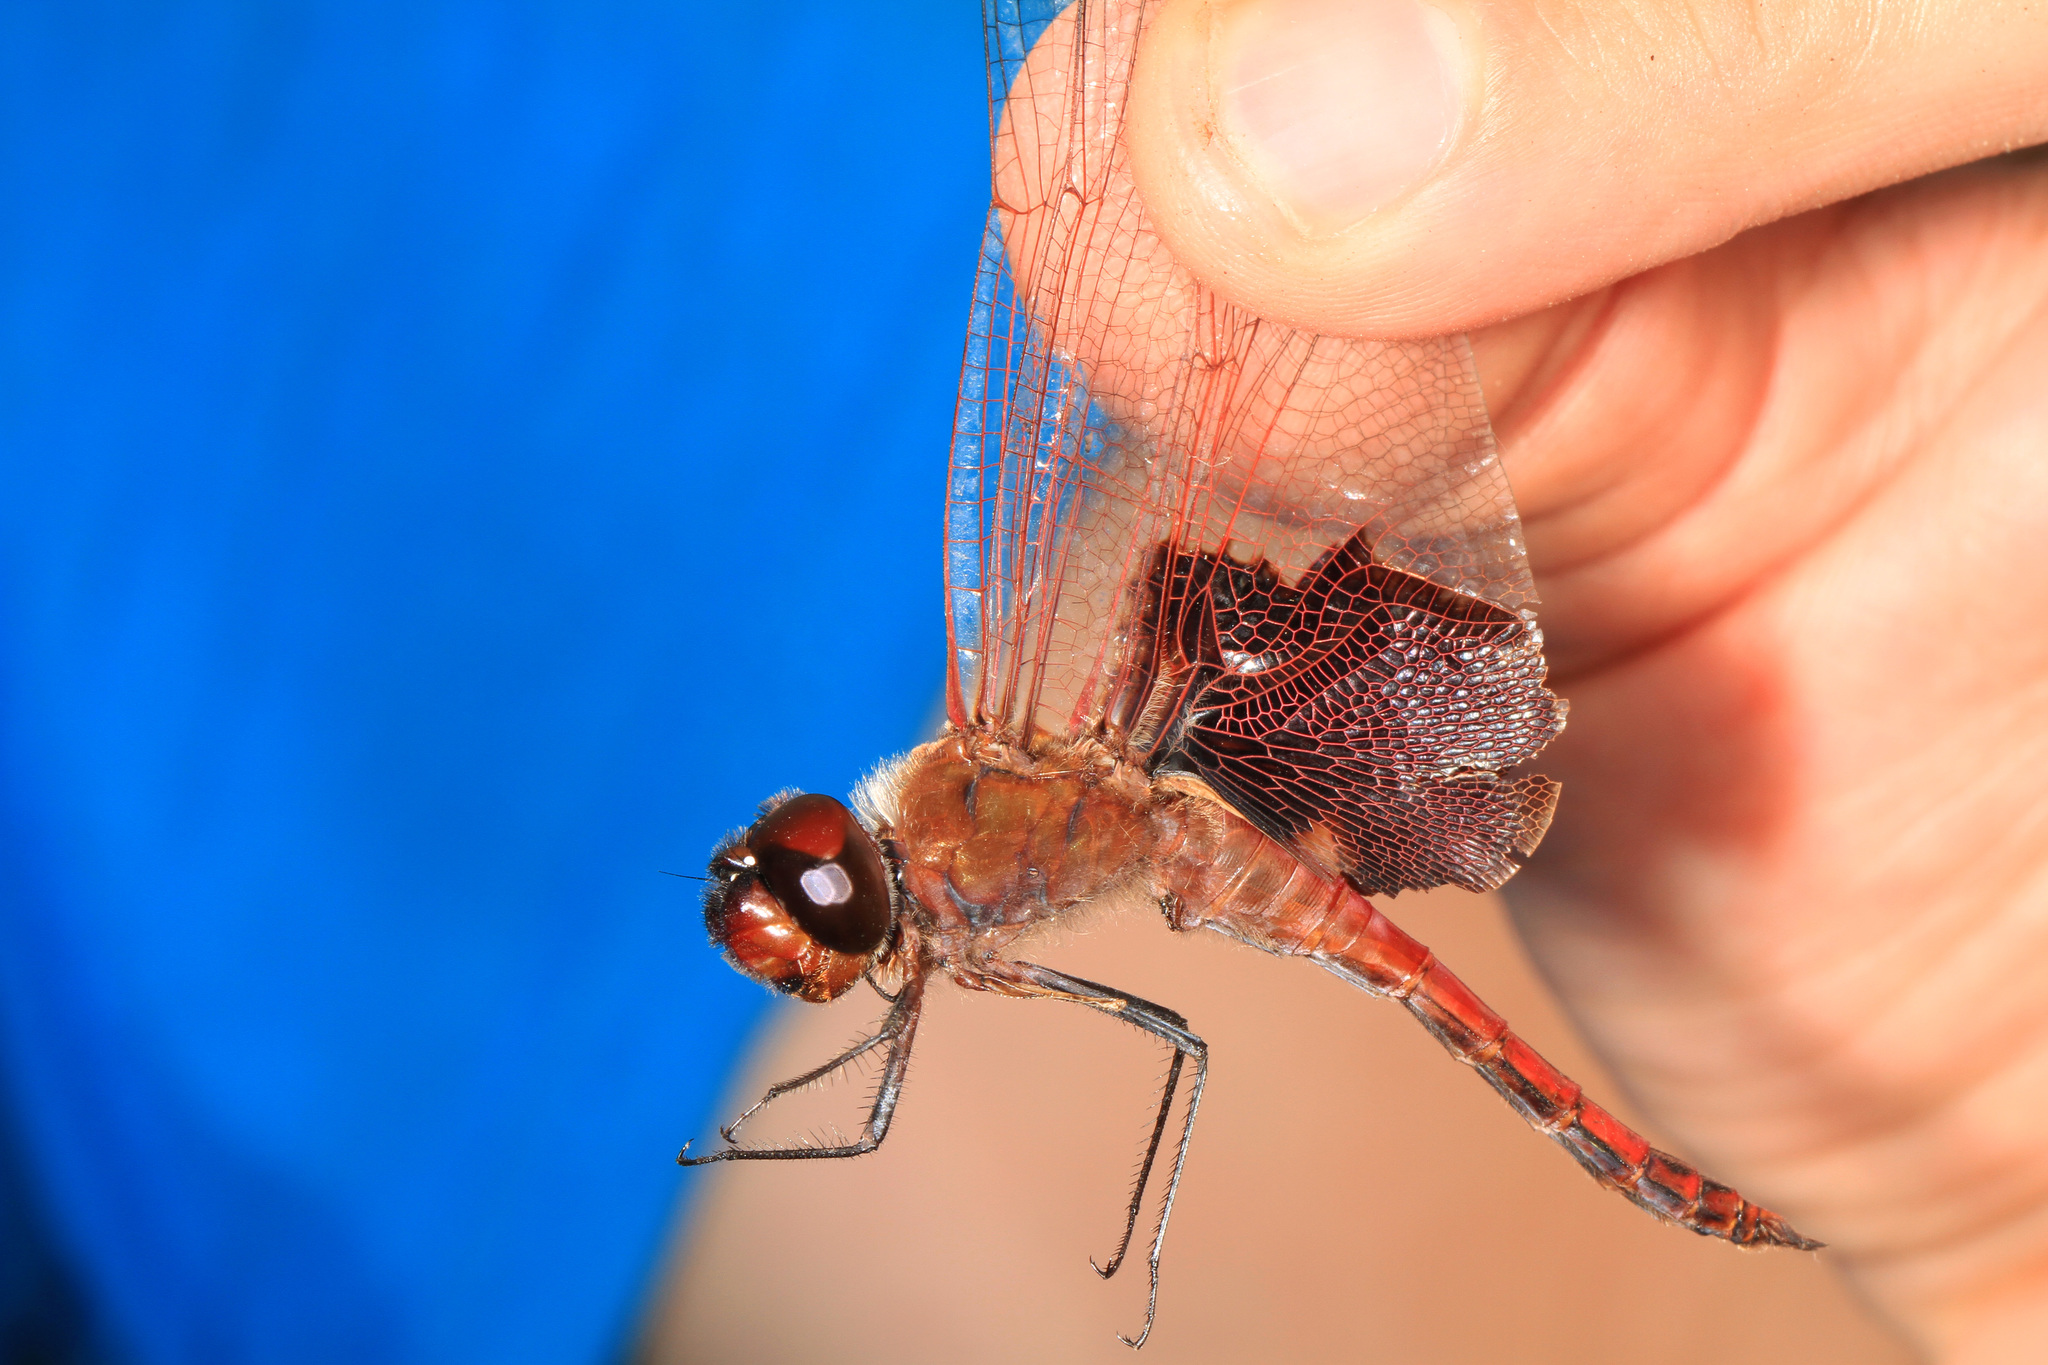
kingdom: Animalia
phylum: Arthropoda
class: Insecta
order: Odonata
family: Libellulidae
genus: Tramea
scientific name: Tramea onusta
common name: Red saddlebags
